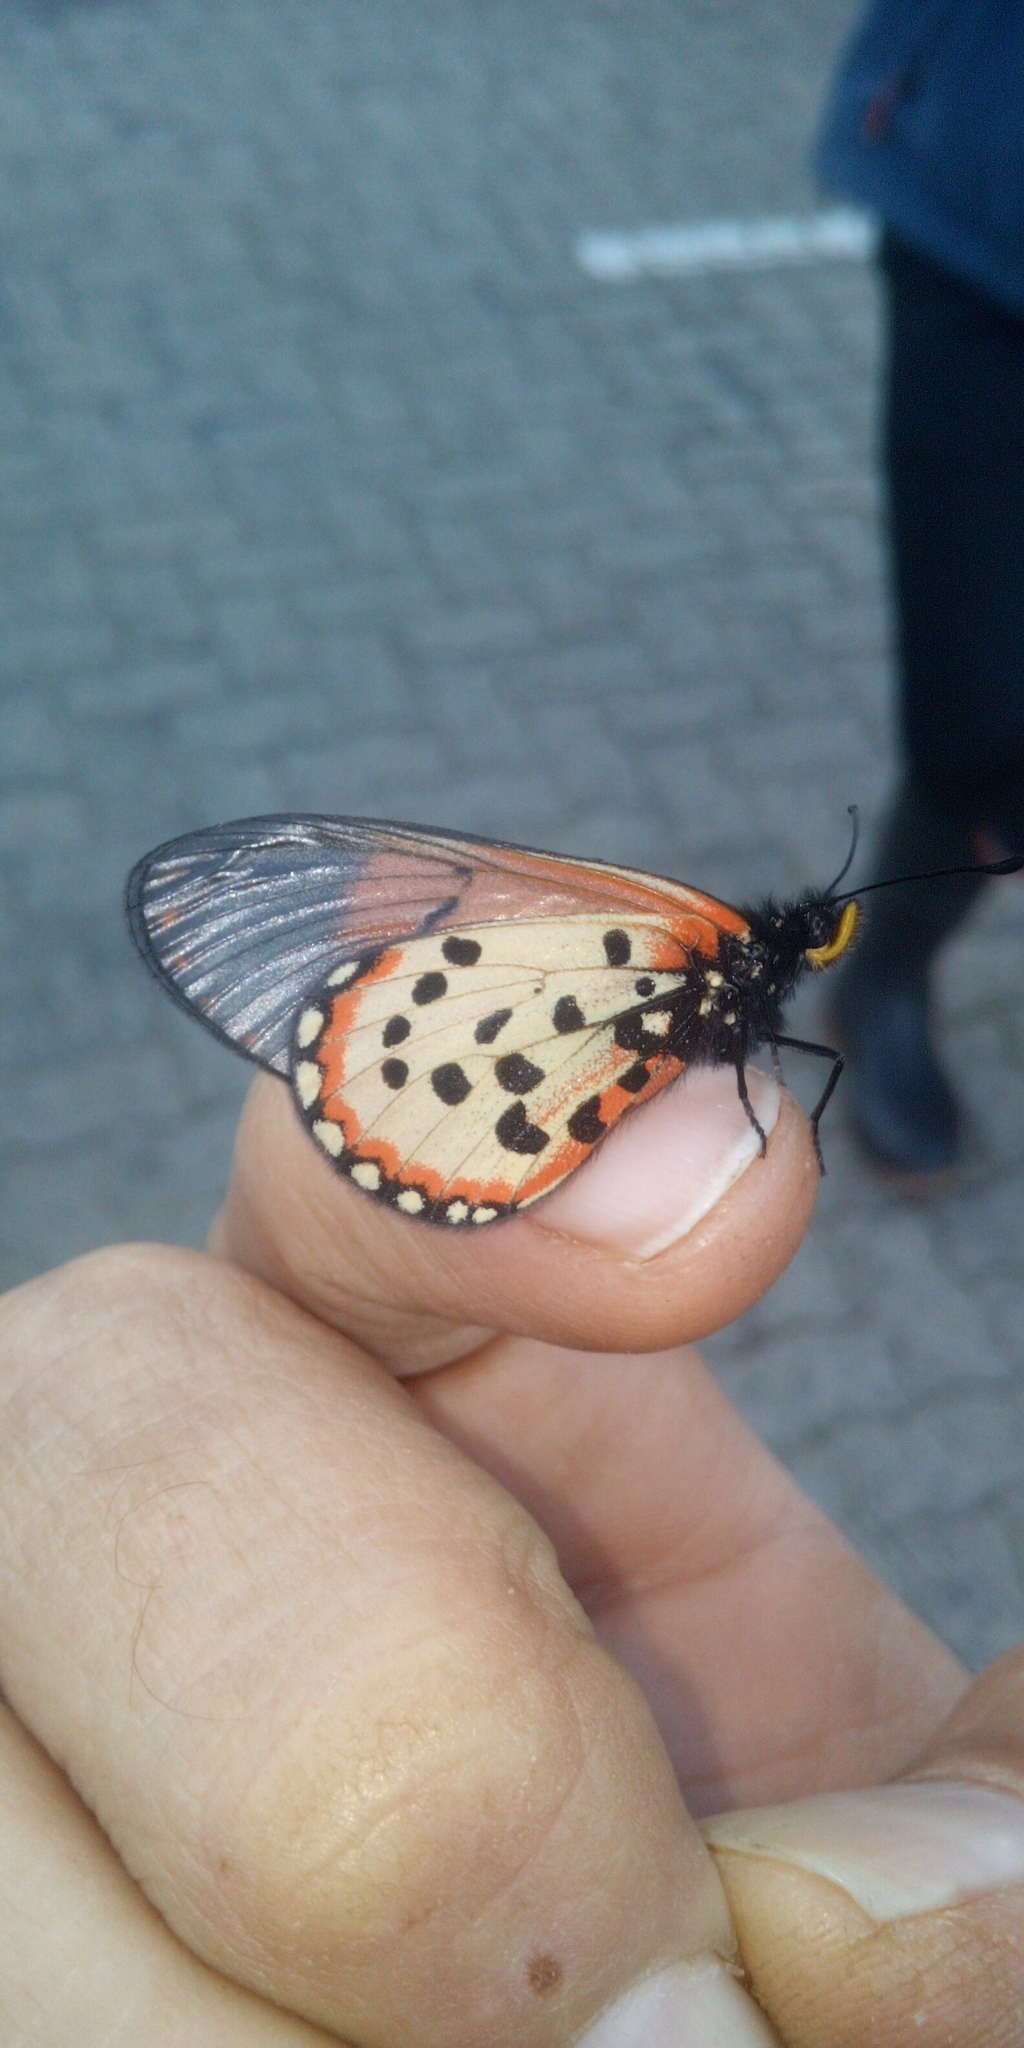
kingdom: Animalia
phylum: Arthropoda
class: Insecta
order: Lepidoptera
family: Nymphalidae
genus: Acraea
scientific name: Acraea horta
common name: Garden acraea
